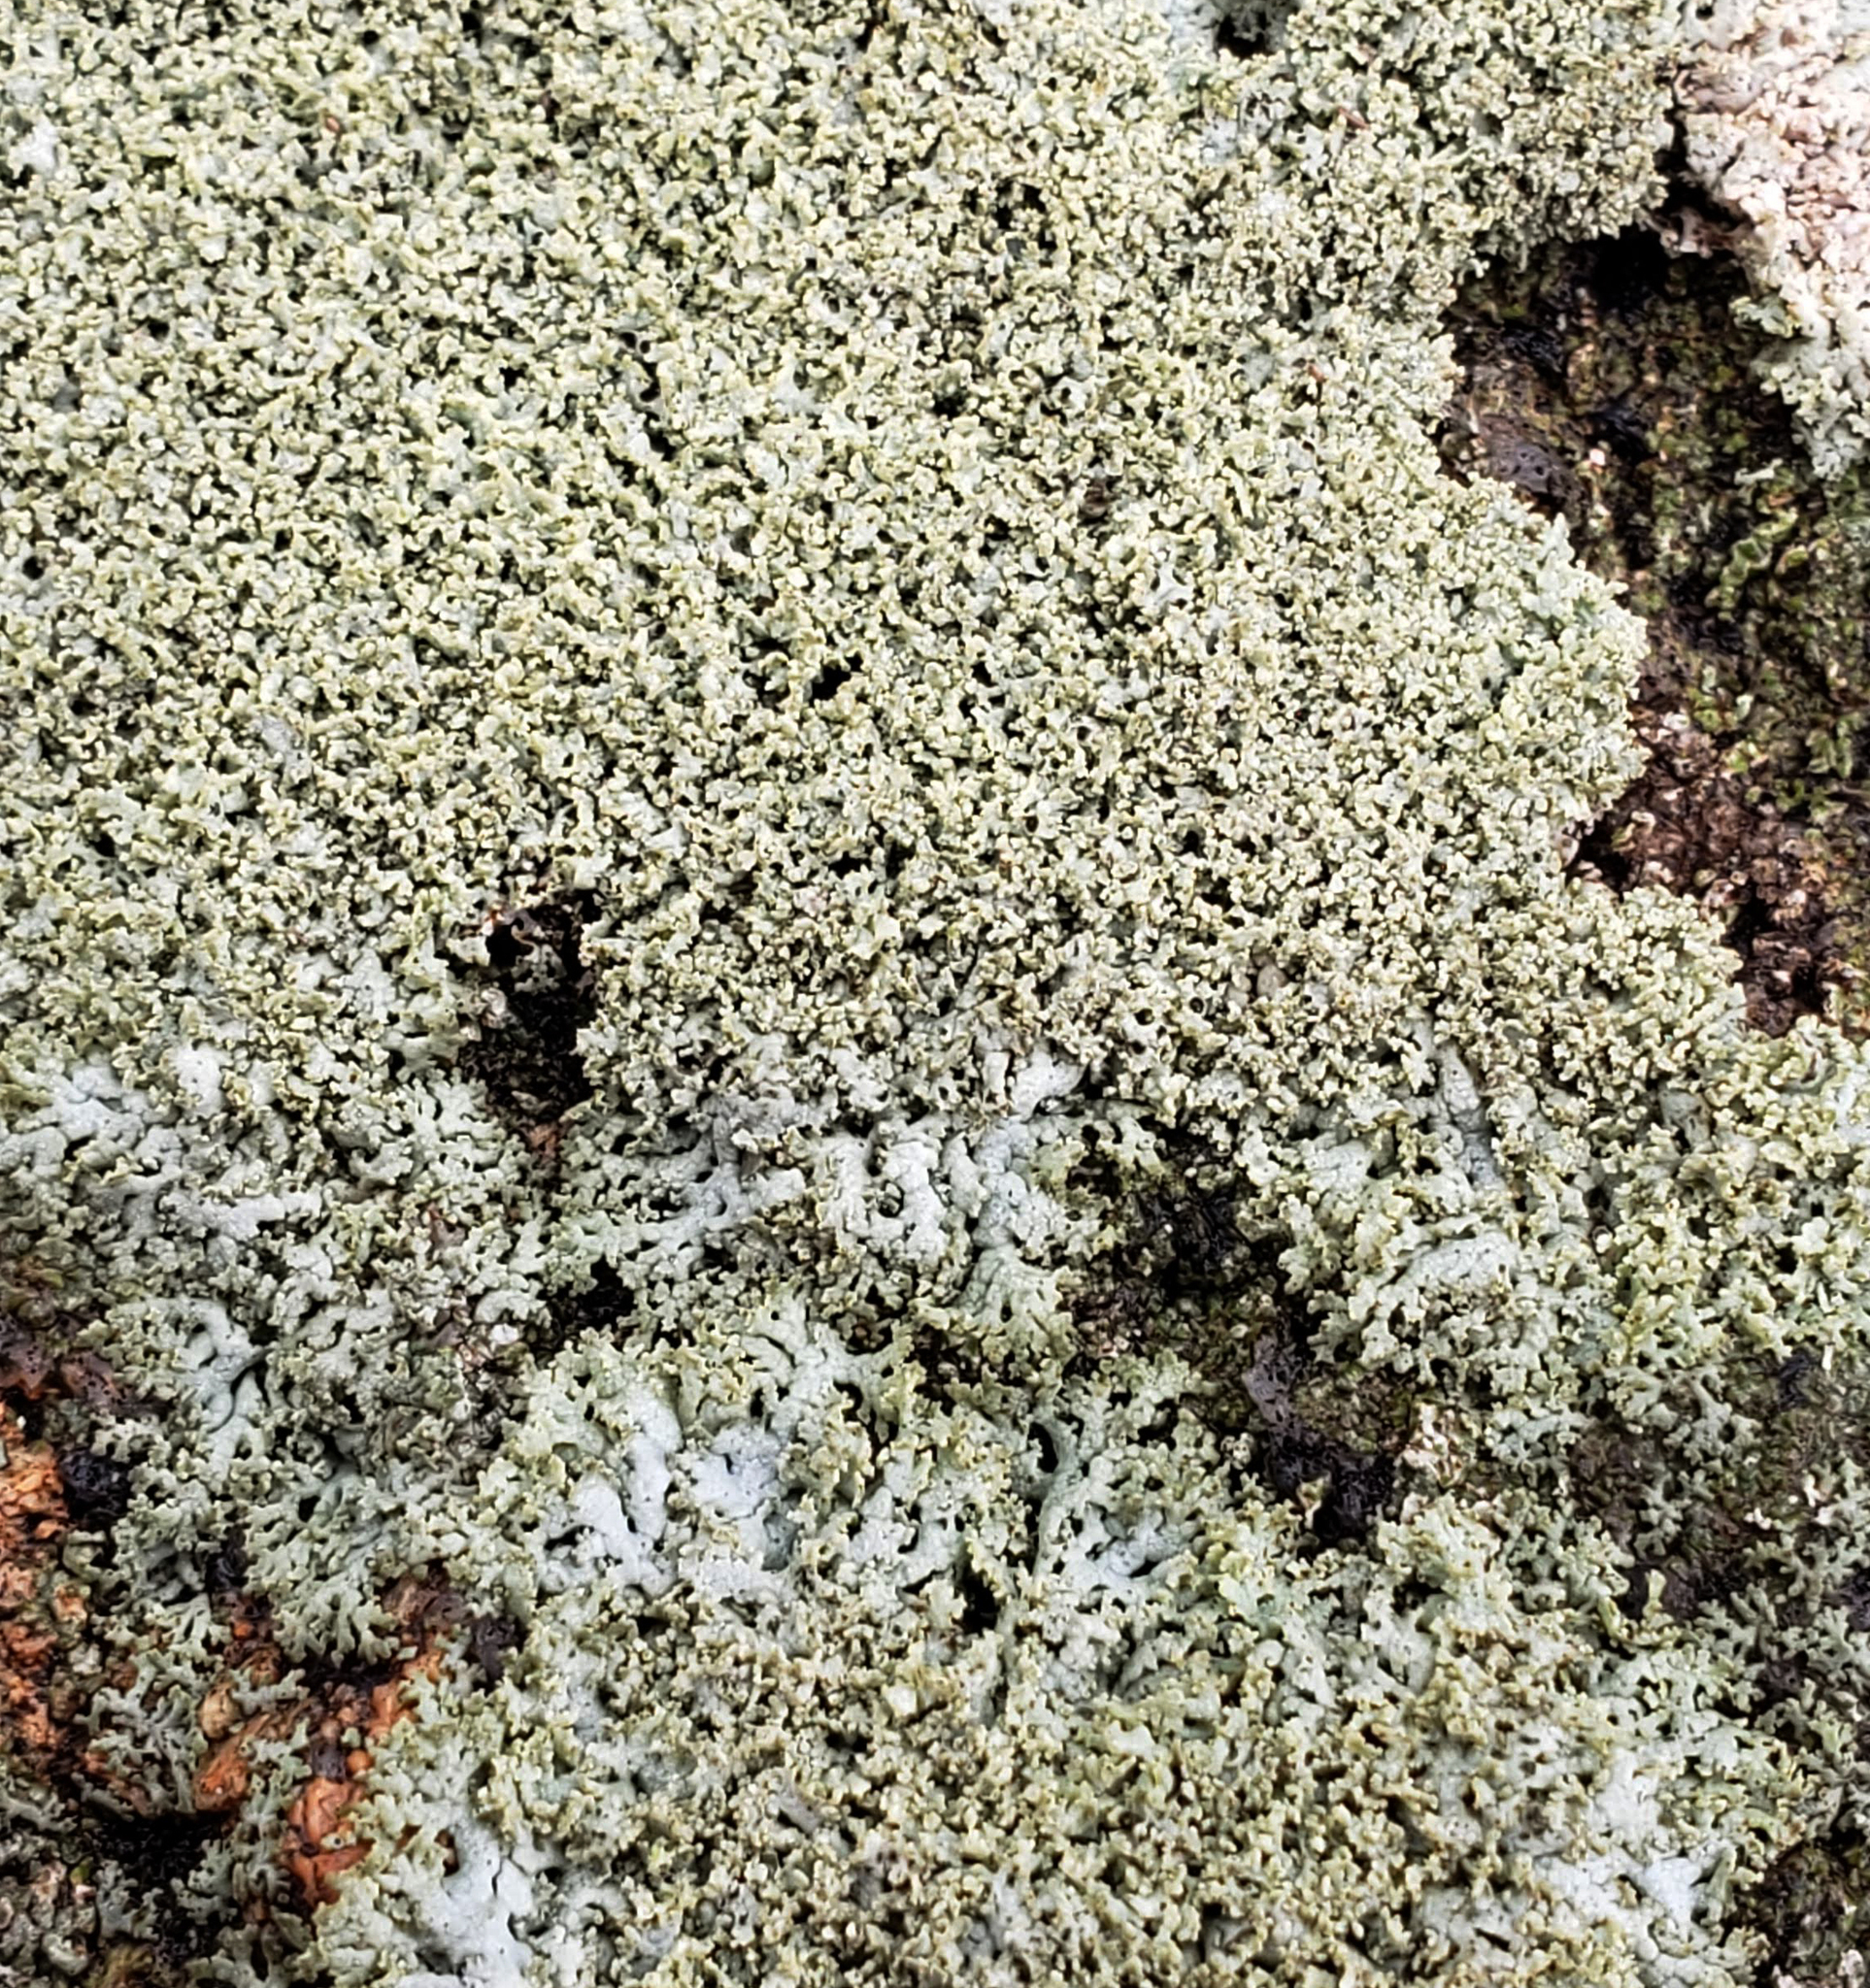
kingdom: Fungi
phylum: Ascomycota
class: Lecanoromycetes
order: Caliciales
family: Physciaceae
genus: Physcia
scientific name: Physcia millegrana
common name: Rosette lichen
